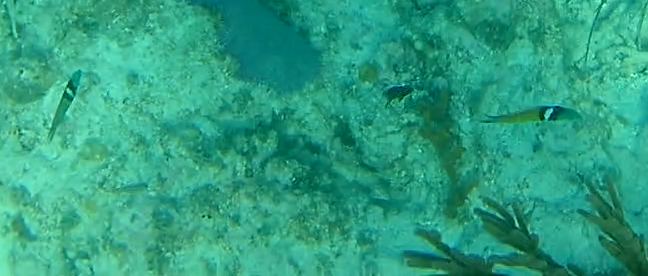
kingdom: Animalia
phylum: Chordata
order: Perciformes
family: Labridae
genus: Thalassoma
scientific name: Thalassoma bifasciatum
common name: Bluehead wrasse
